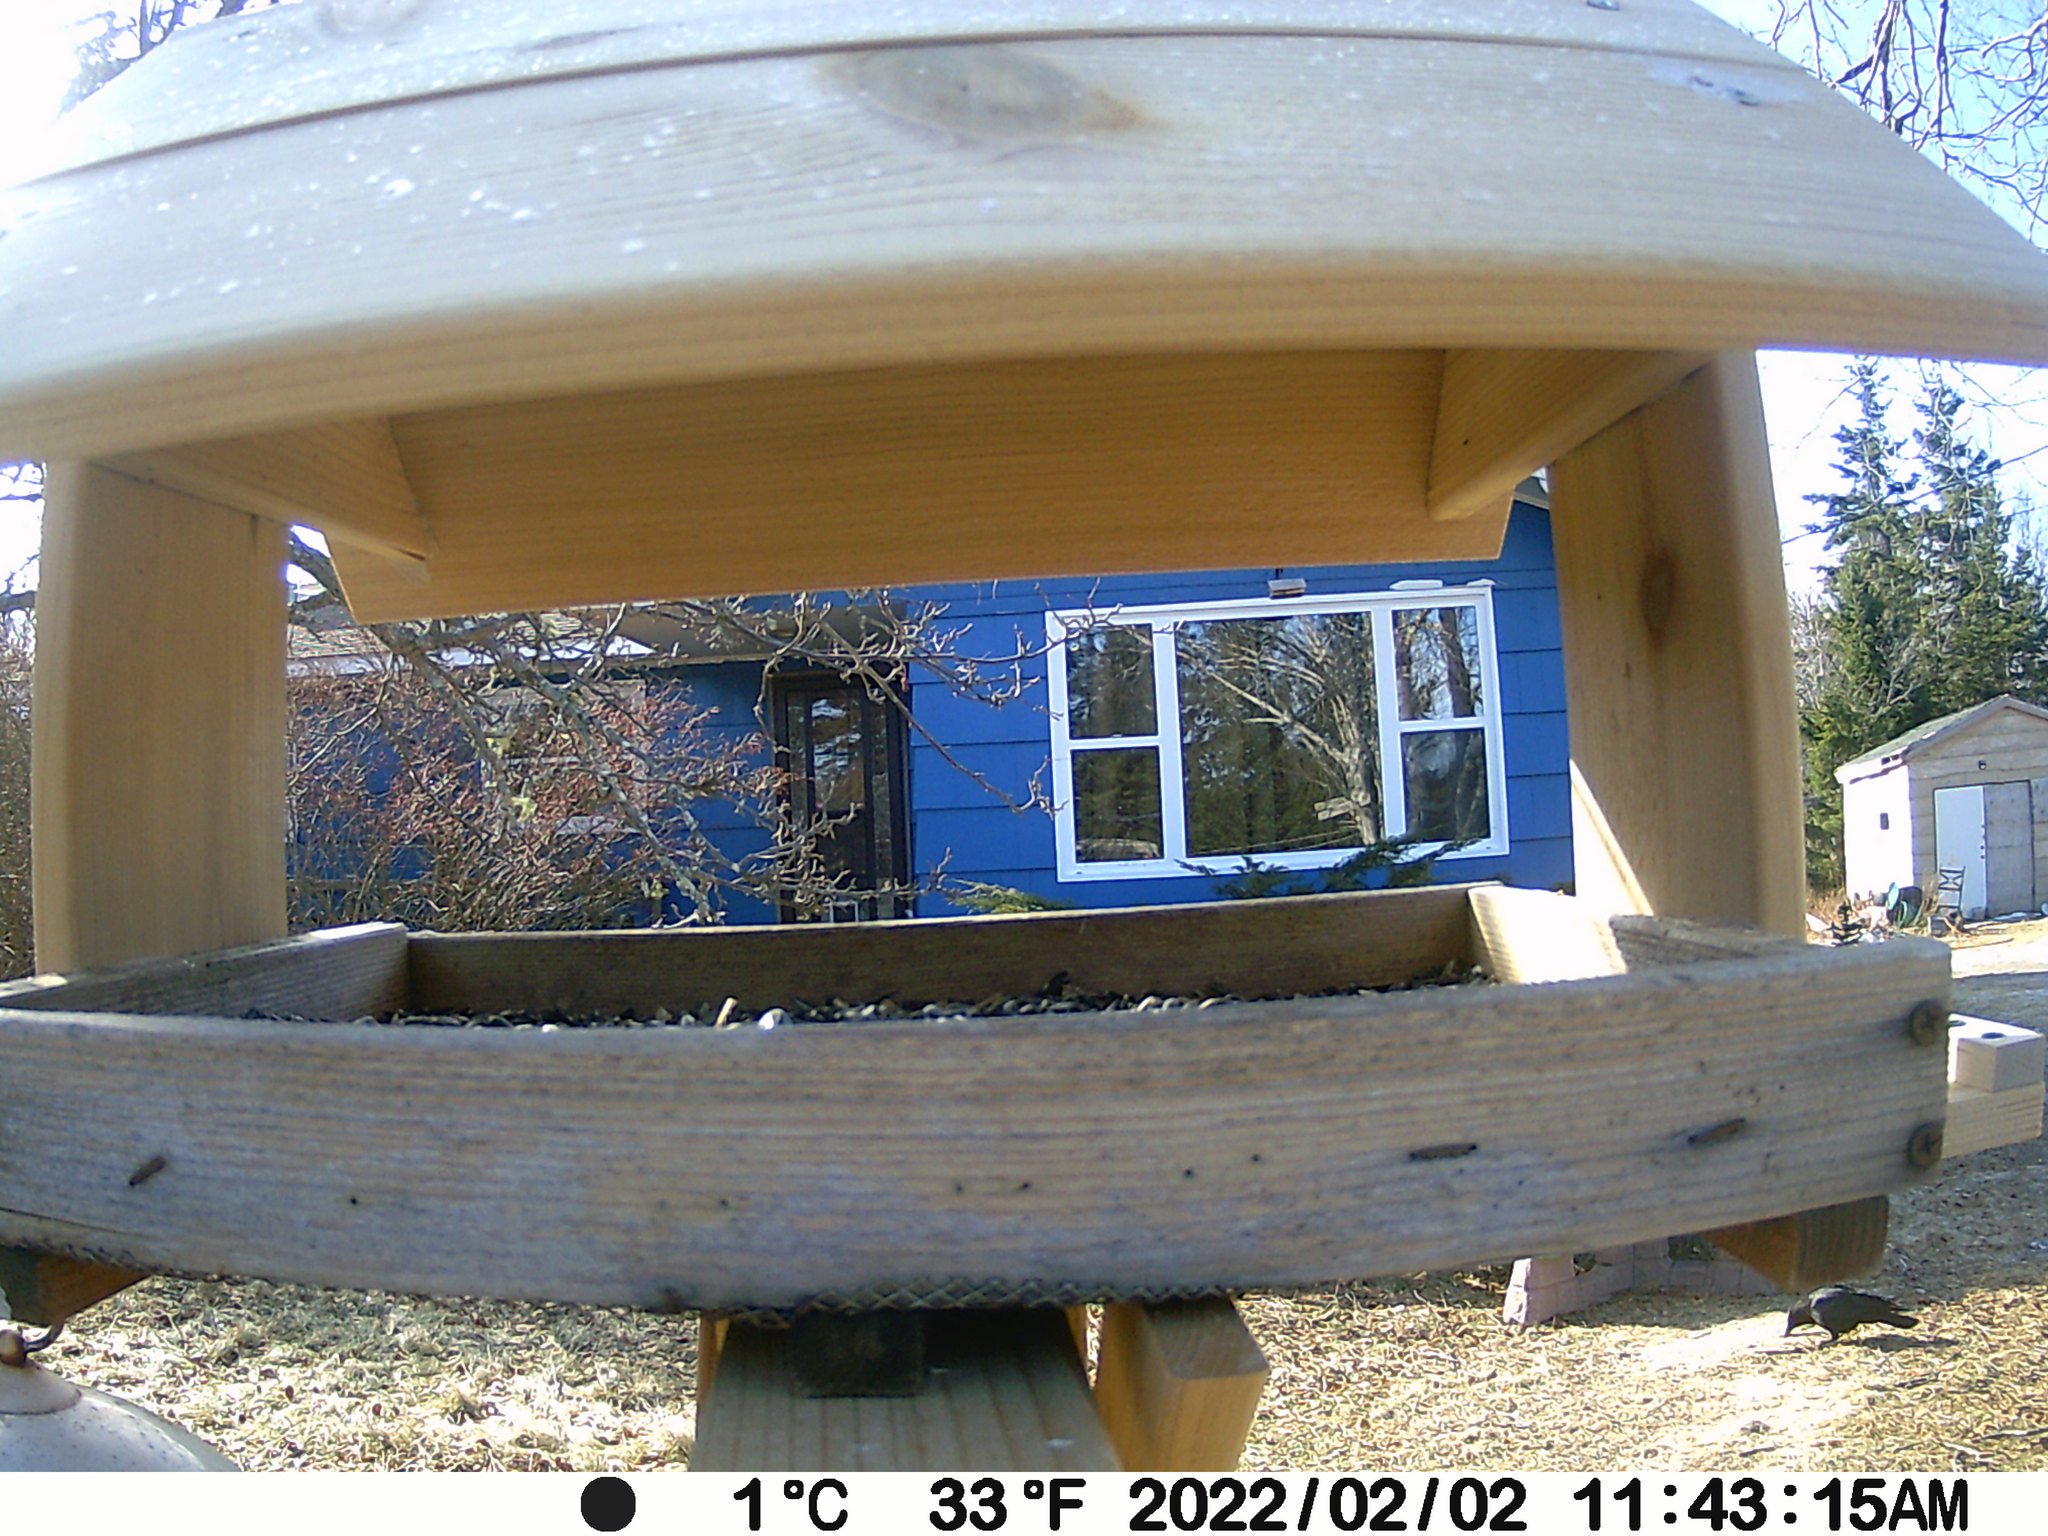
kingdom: Animalia
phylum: Chordata
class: Aves
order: Passeriformes
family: Corvidae
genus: Corvus
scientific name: Corvus brachyrhynchos
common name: American crow
